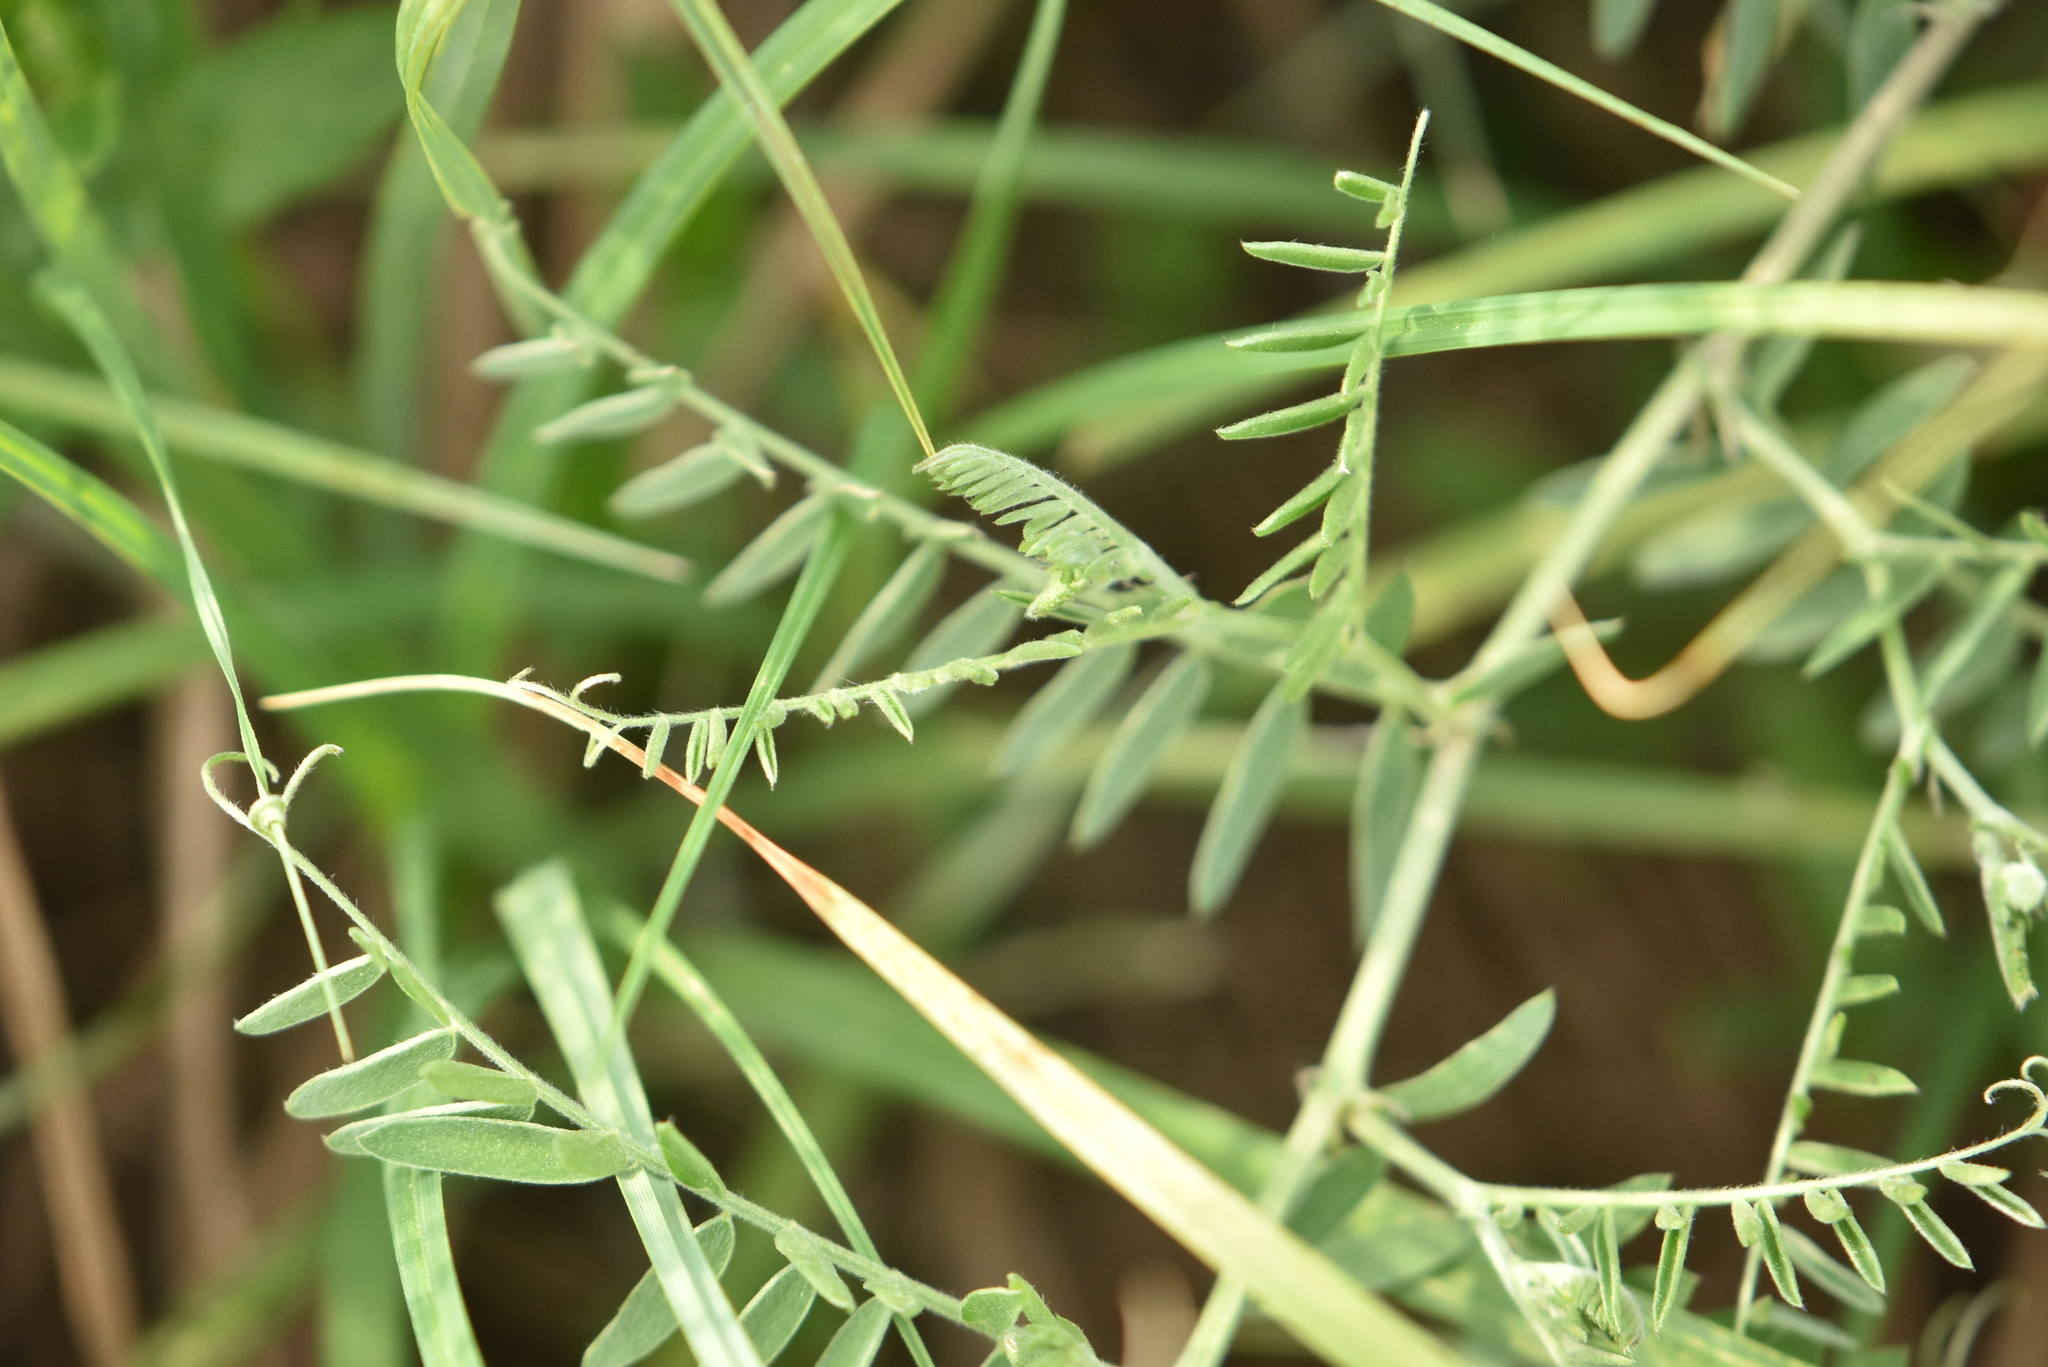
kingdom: Plantae
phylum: Tracheophyta
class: Magnoliopsida
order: Fabales
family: Fabaceae
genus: Vicia
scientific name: Vicia cracca
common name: Bird vetch
